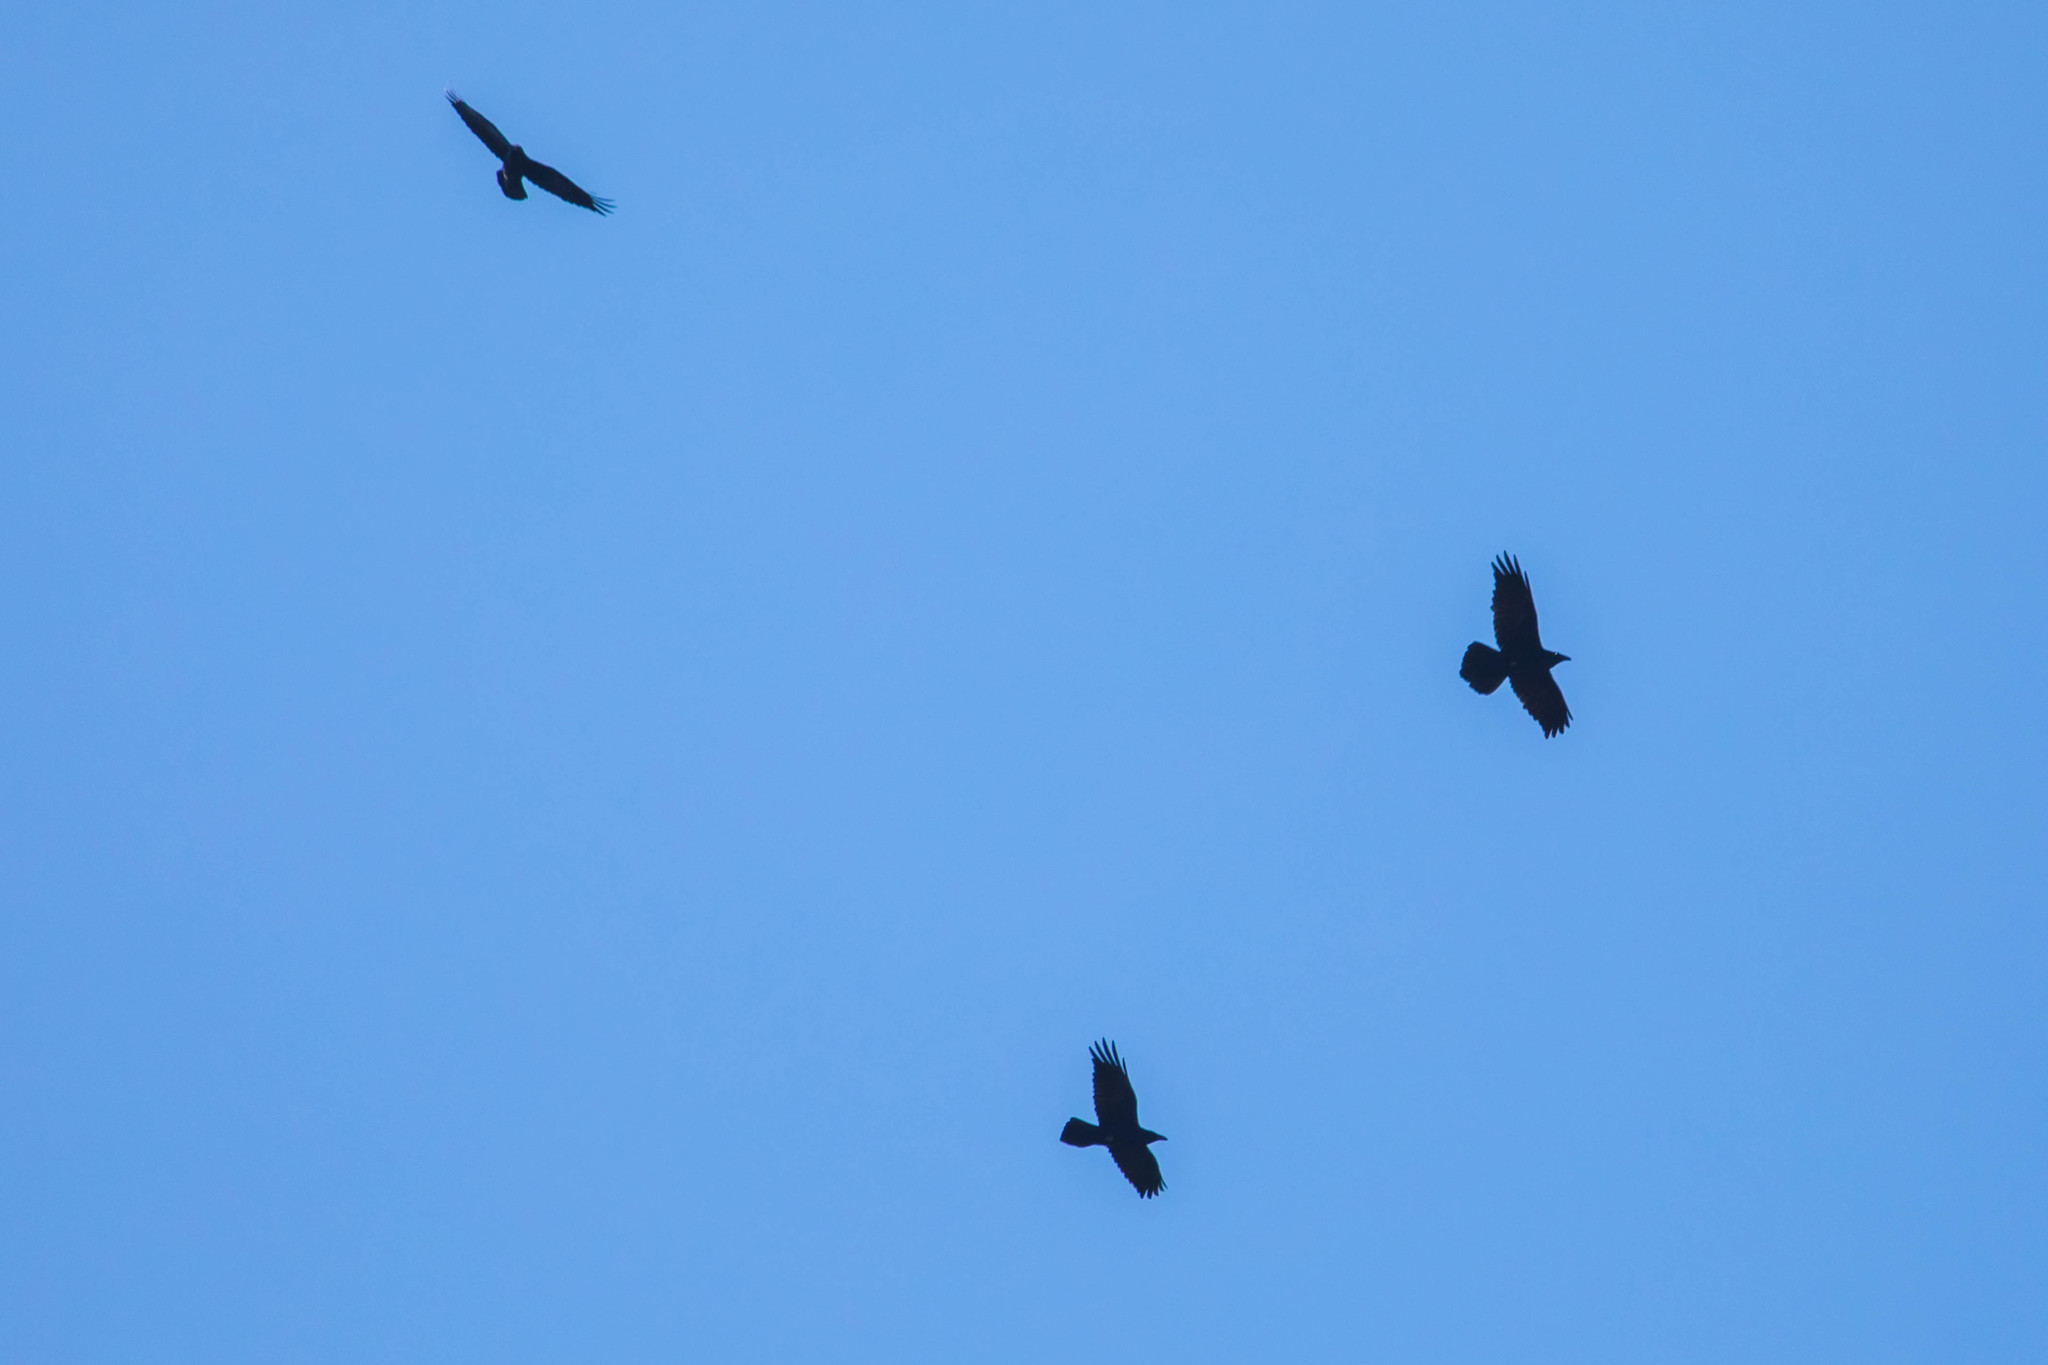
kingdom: Animalia
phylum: Chordata
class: Aves
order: Passeriformes
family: Corvidae
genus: Corvus
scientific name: Corvus corax
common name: Common raven
